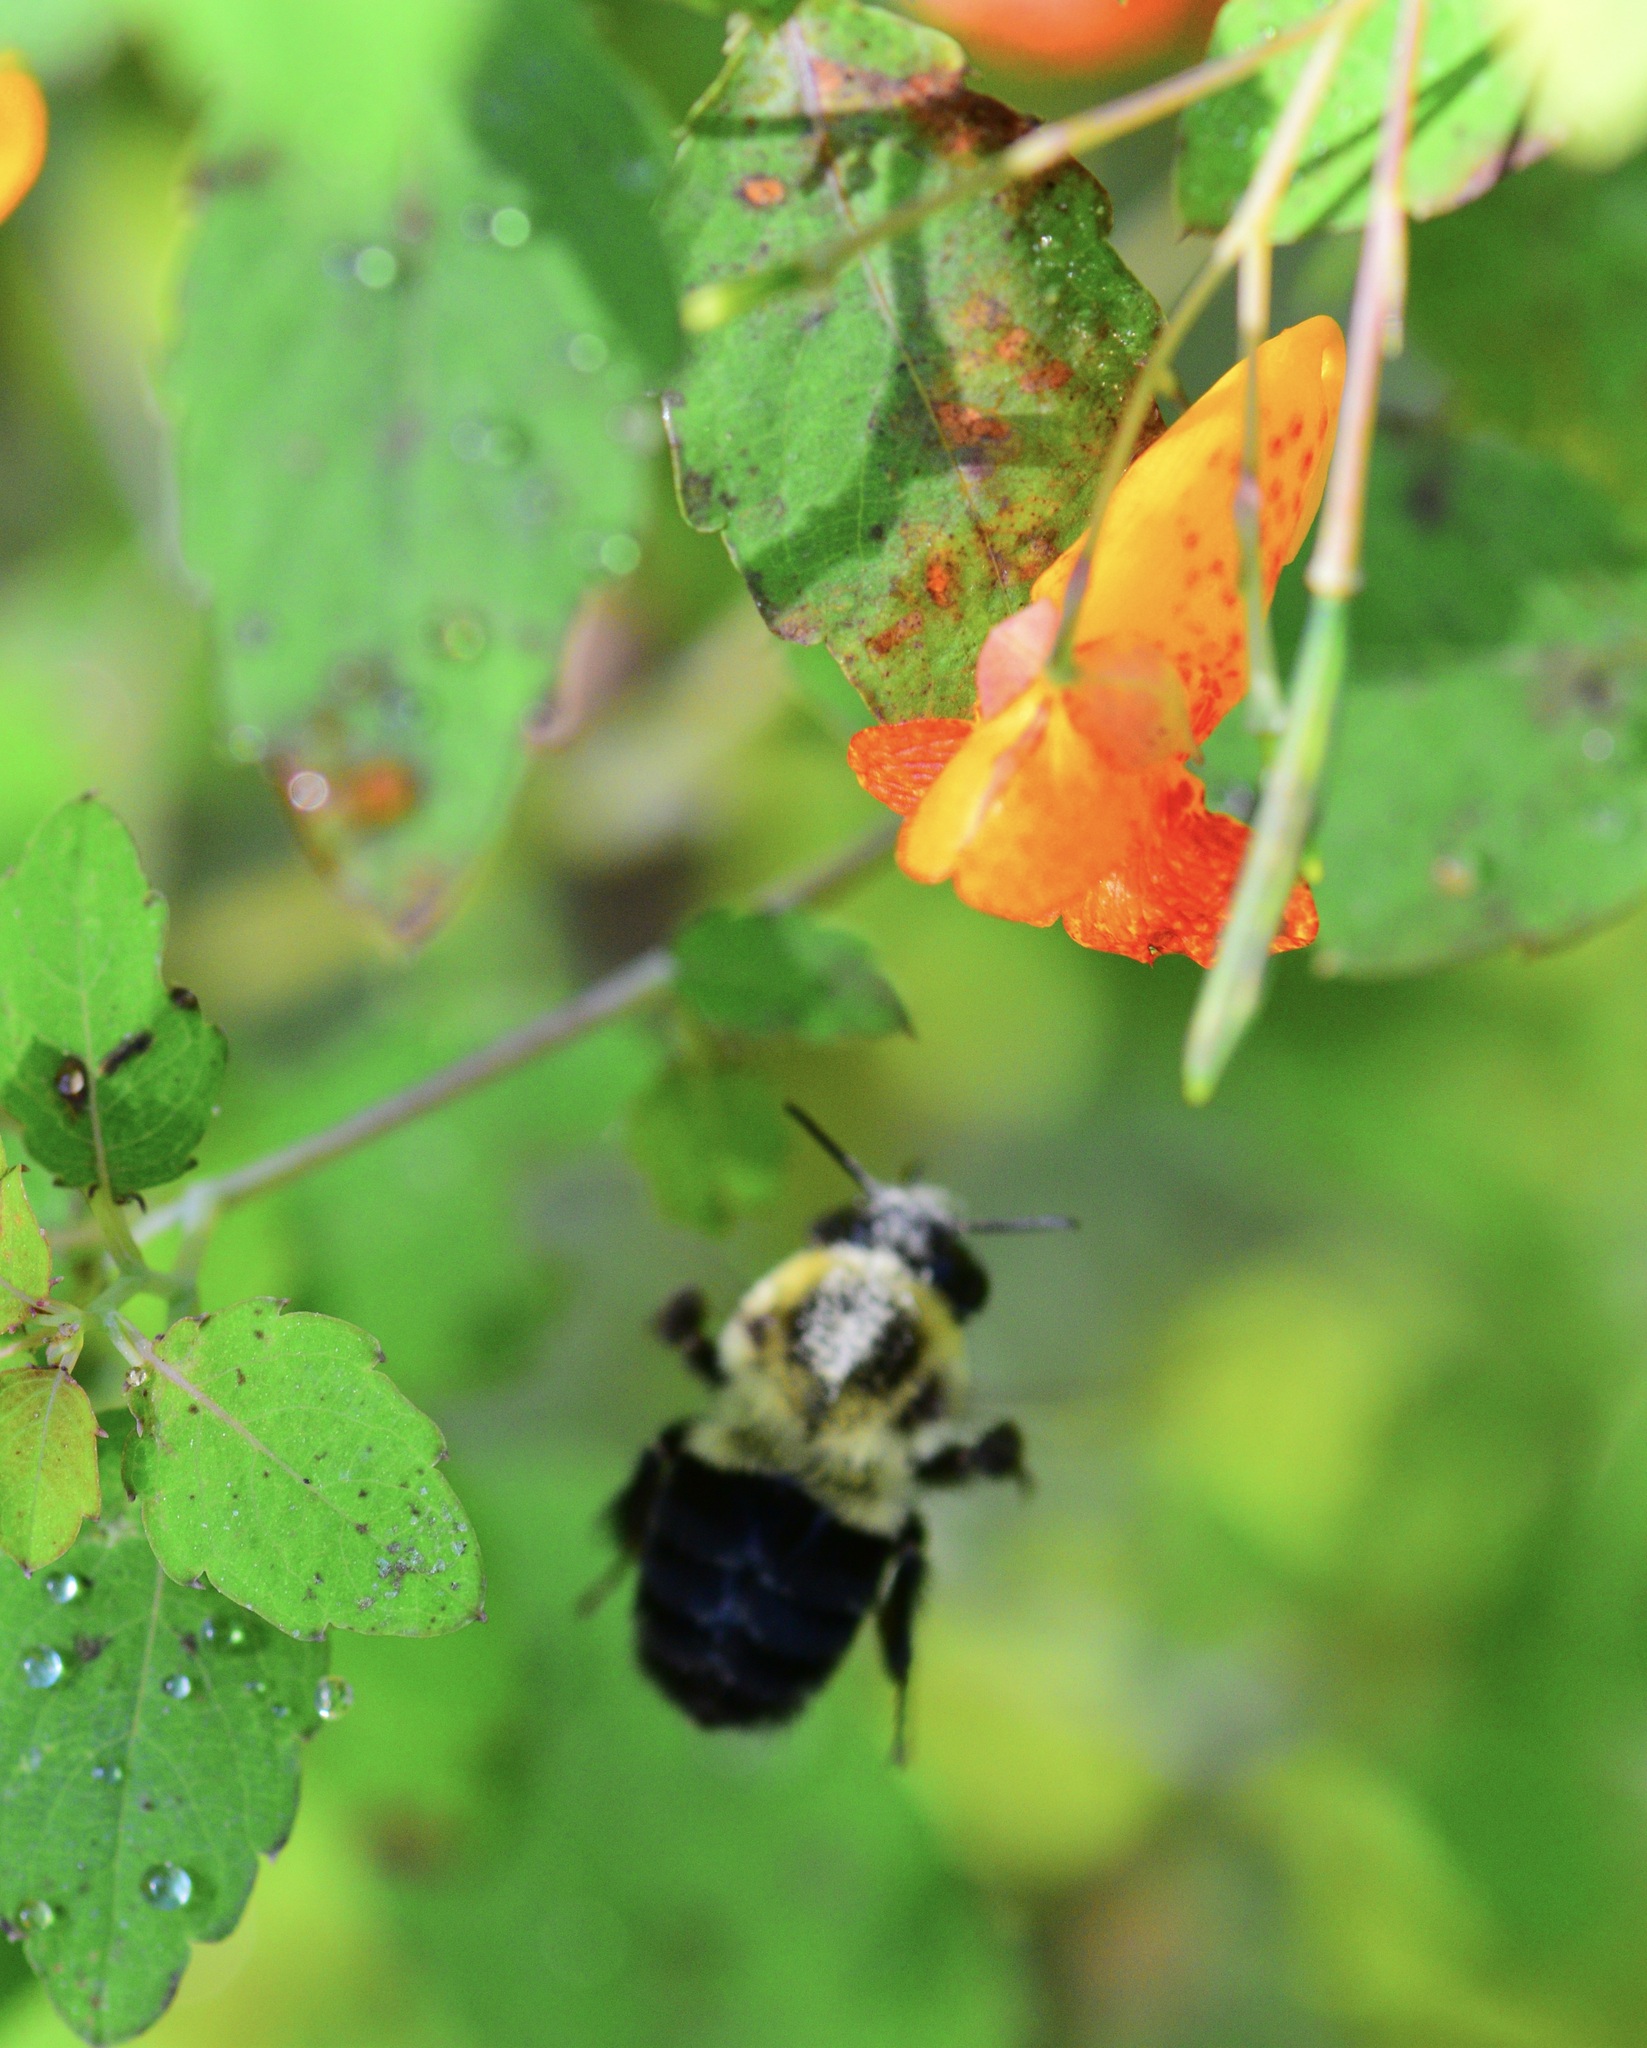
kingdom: Animalia
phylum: Arthropoda
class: Insecta
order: Hymenoptera
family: Apidae
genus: Bombus
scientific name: Bombus impatiens
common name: Common eastern bumble bee
